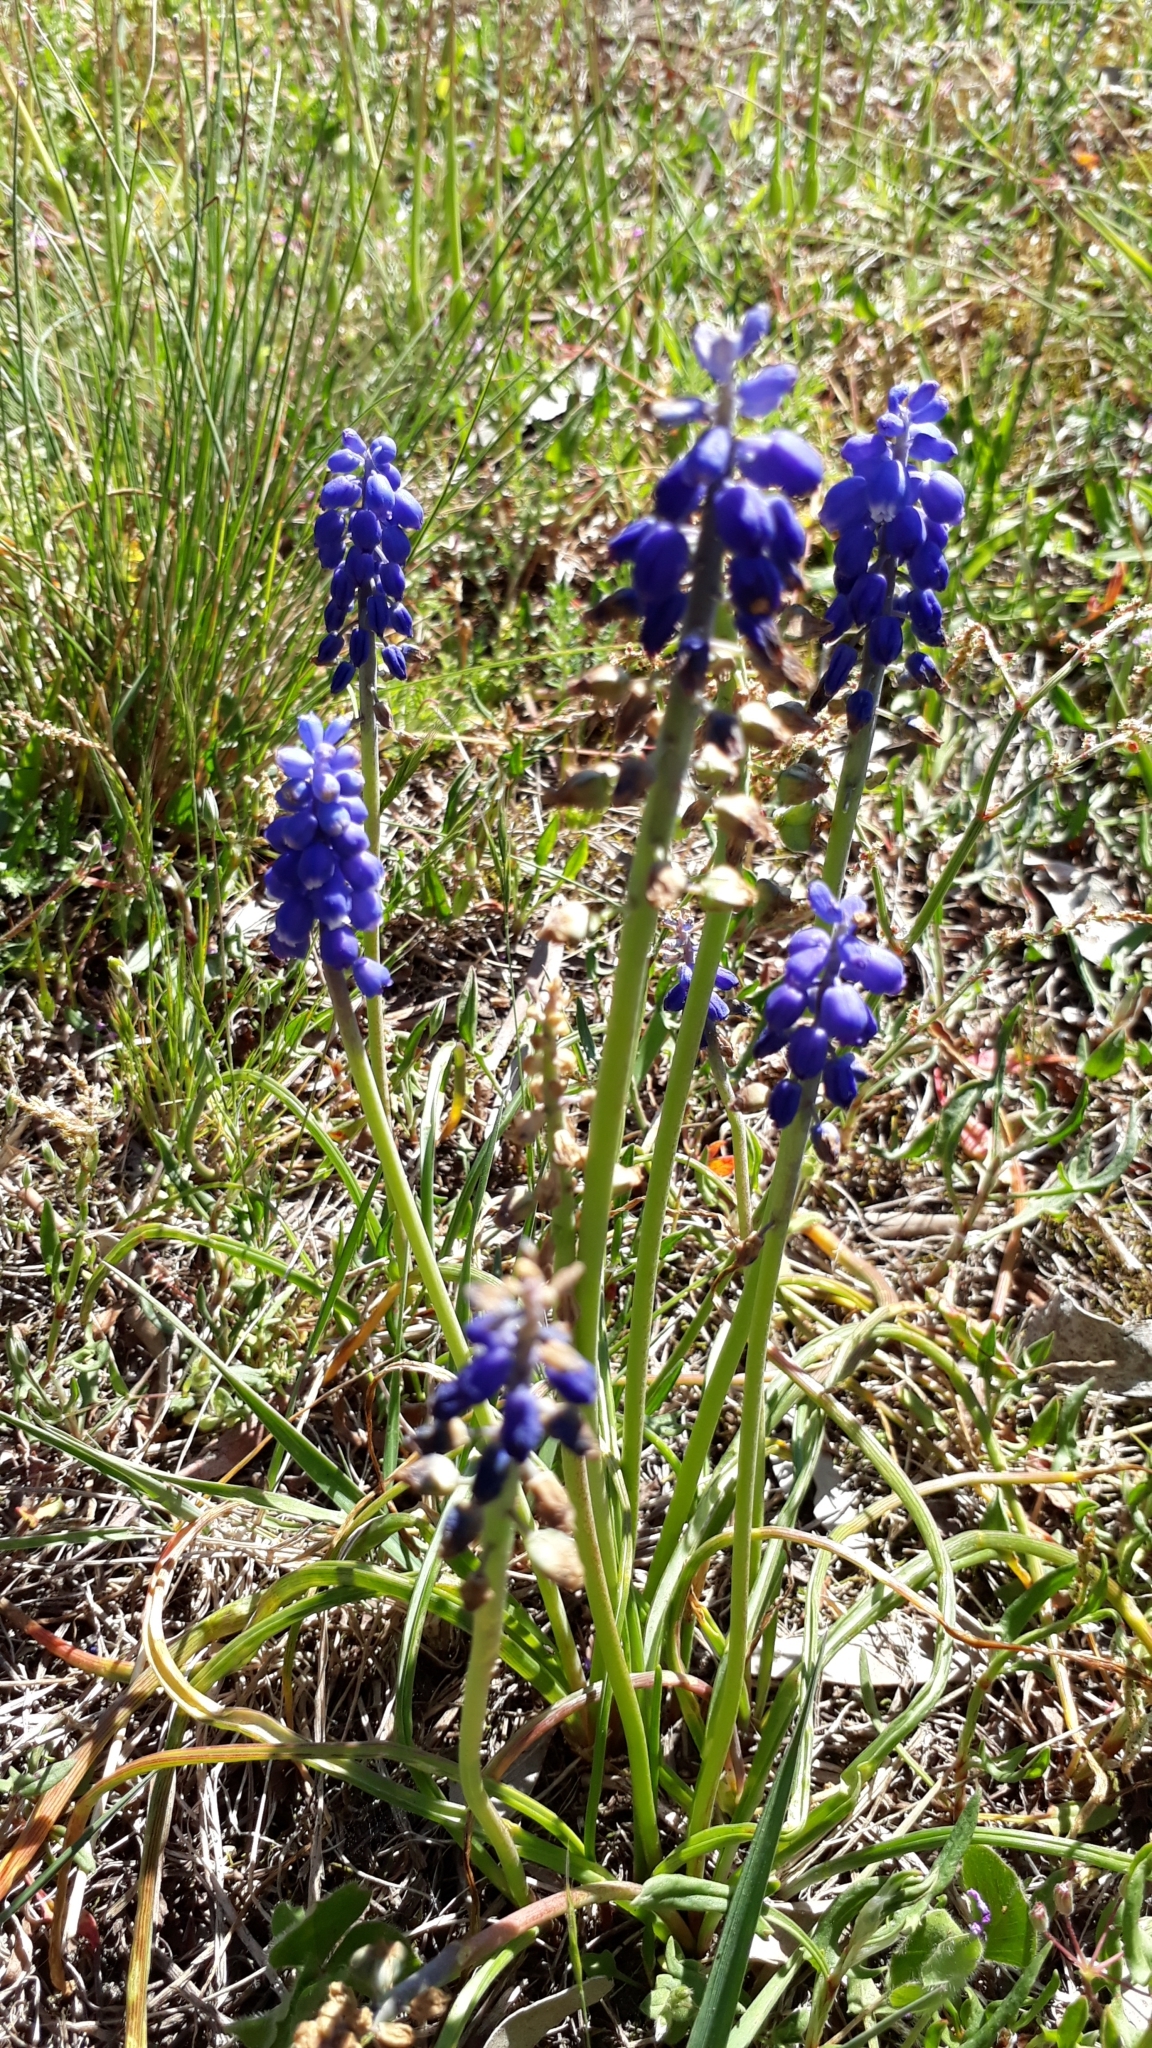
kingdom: Plantae
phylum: Tracheophyta
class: Liliopsida
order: Asparagales
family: Asparagaceae
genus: Muscari
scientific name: Muscari armeniacum
